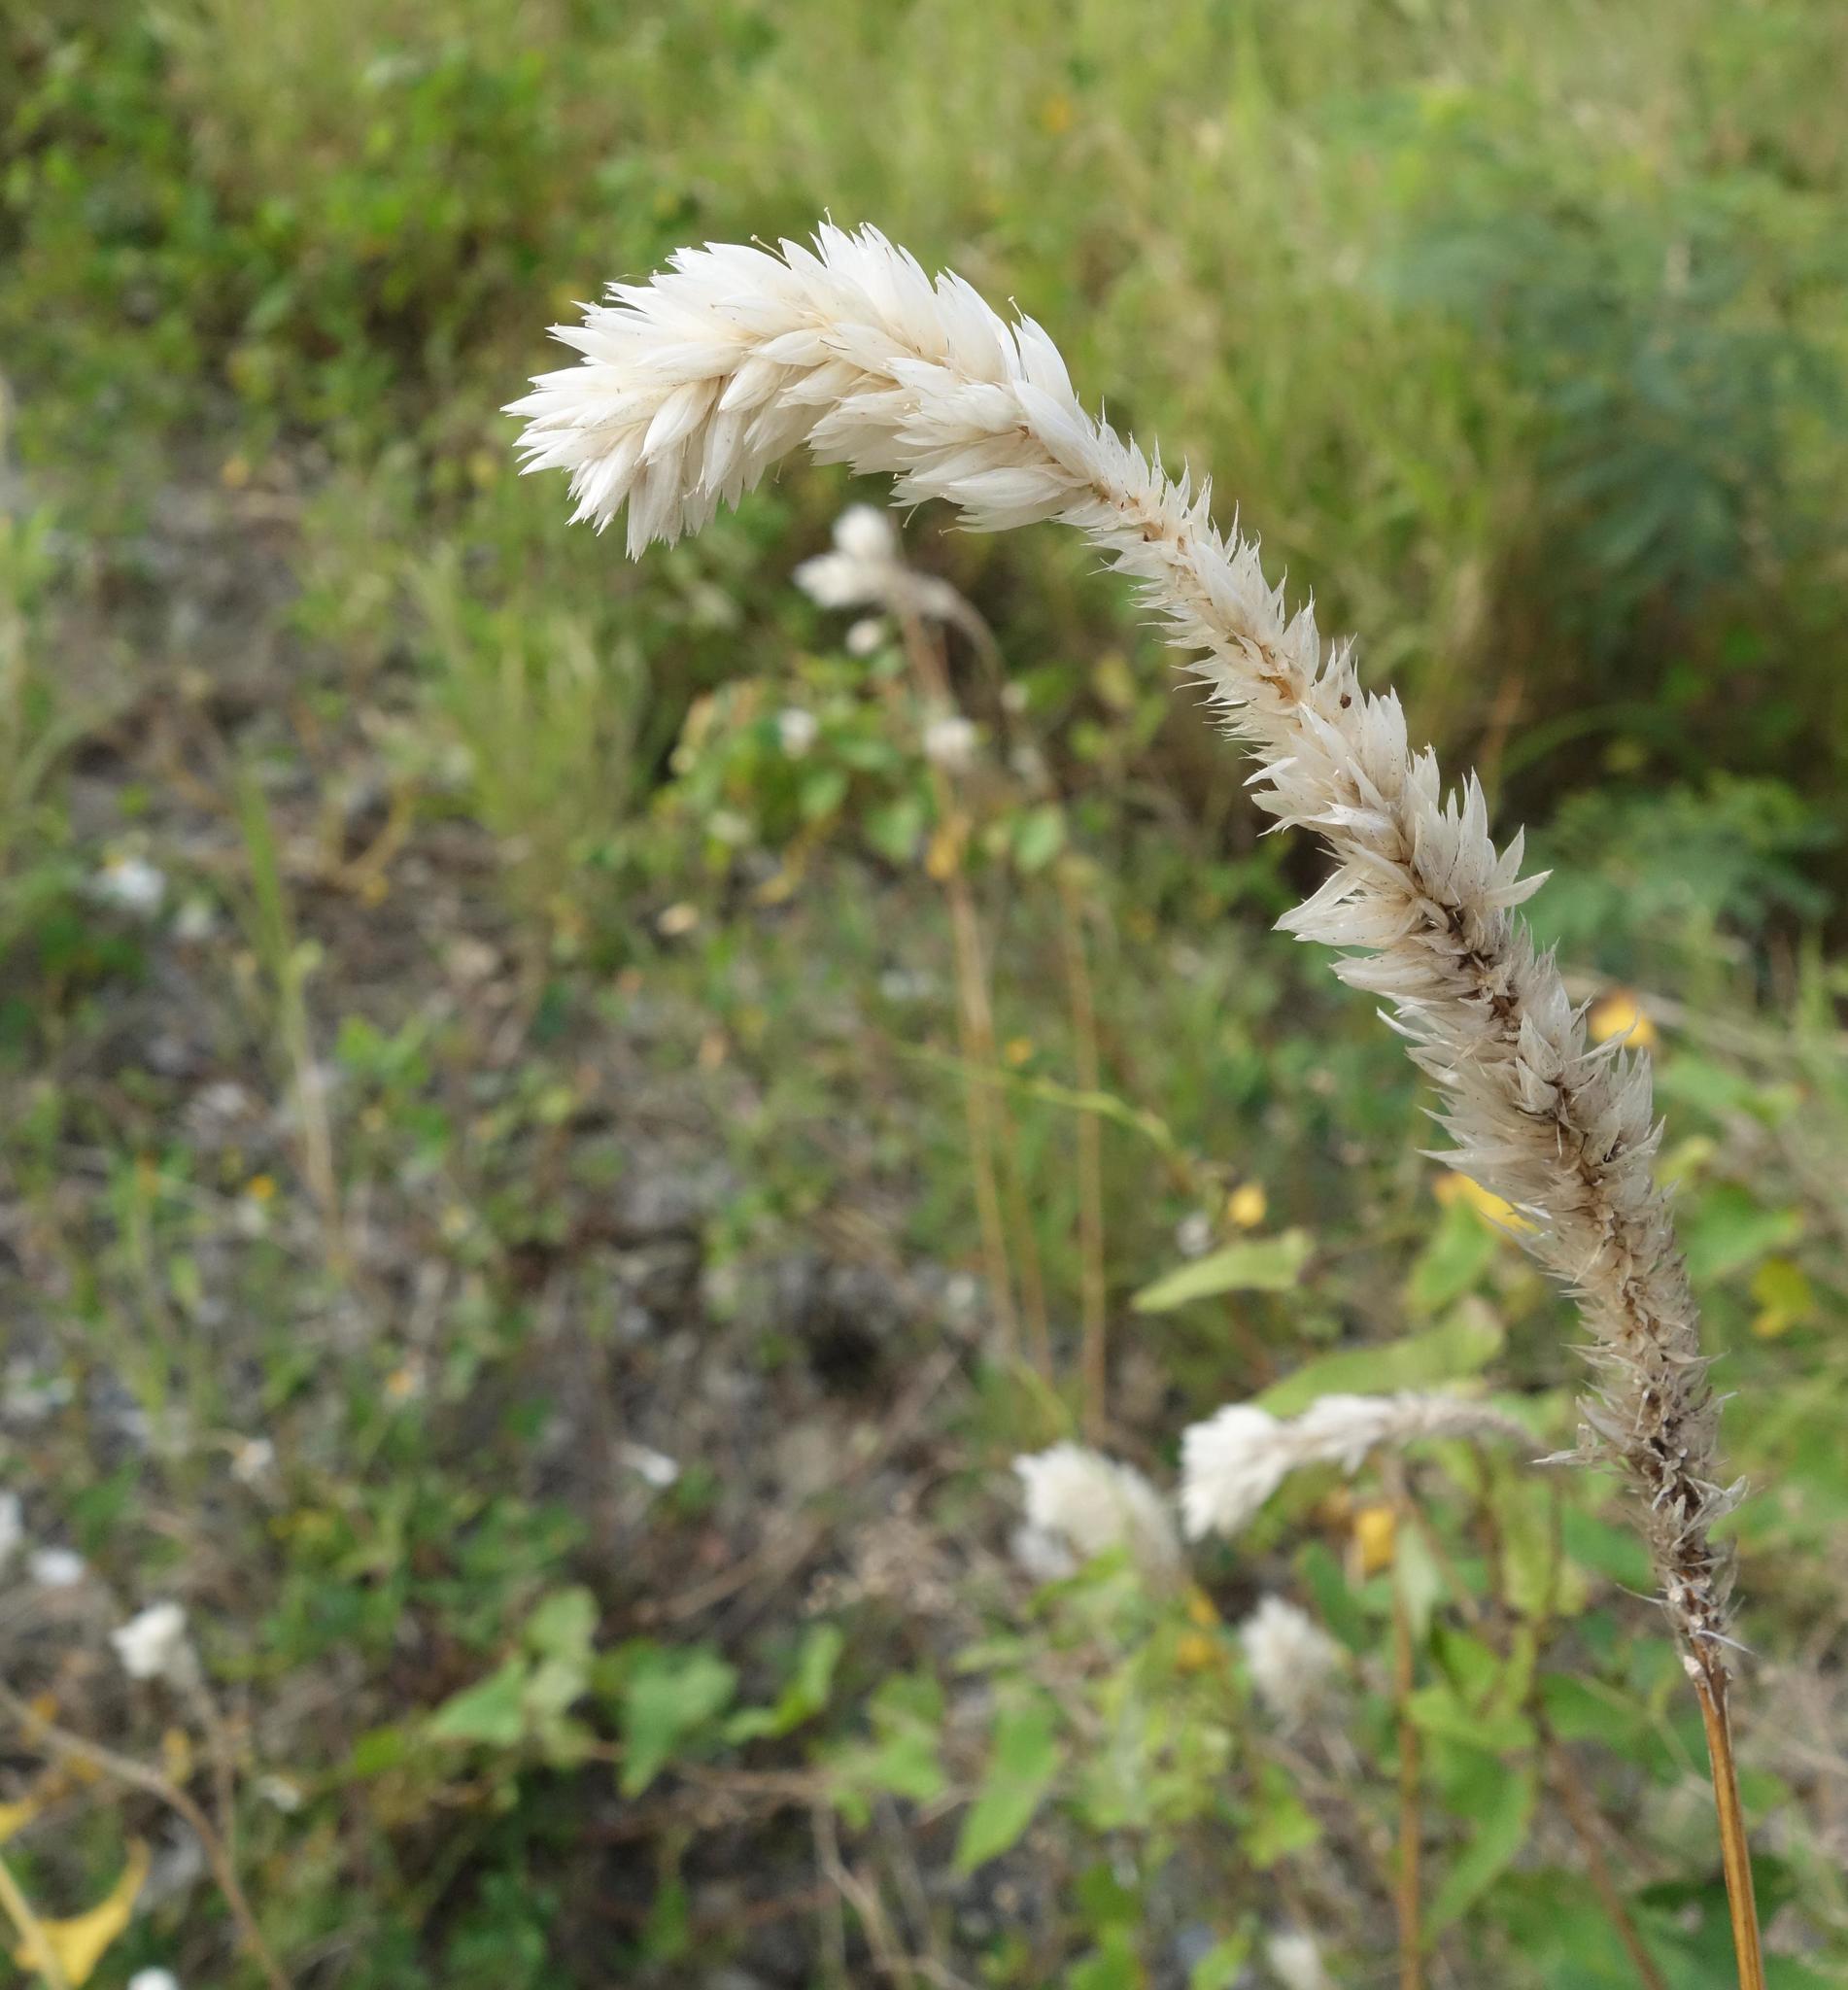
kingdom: Plantae
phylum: Tracheophyta
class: Magnoliopsida
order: Caryophyllales
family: Amaranthaceae
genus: Celosia
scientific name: Celosia argentea
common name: Feather cockscomb
